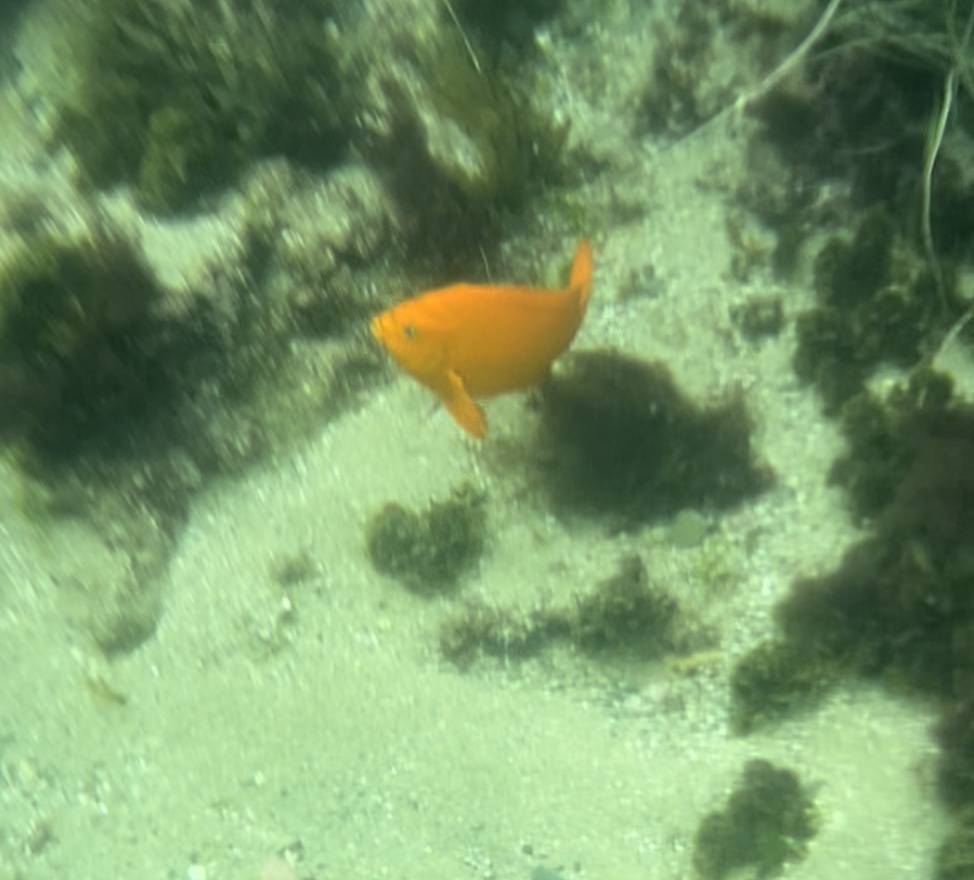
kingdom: Animalia
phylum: Chordata
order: Perciformes
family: Pomacentridae
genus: Hypsypops
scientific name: Hypsypops rubicundus
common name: Garibaldi
